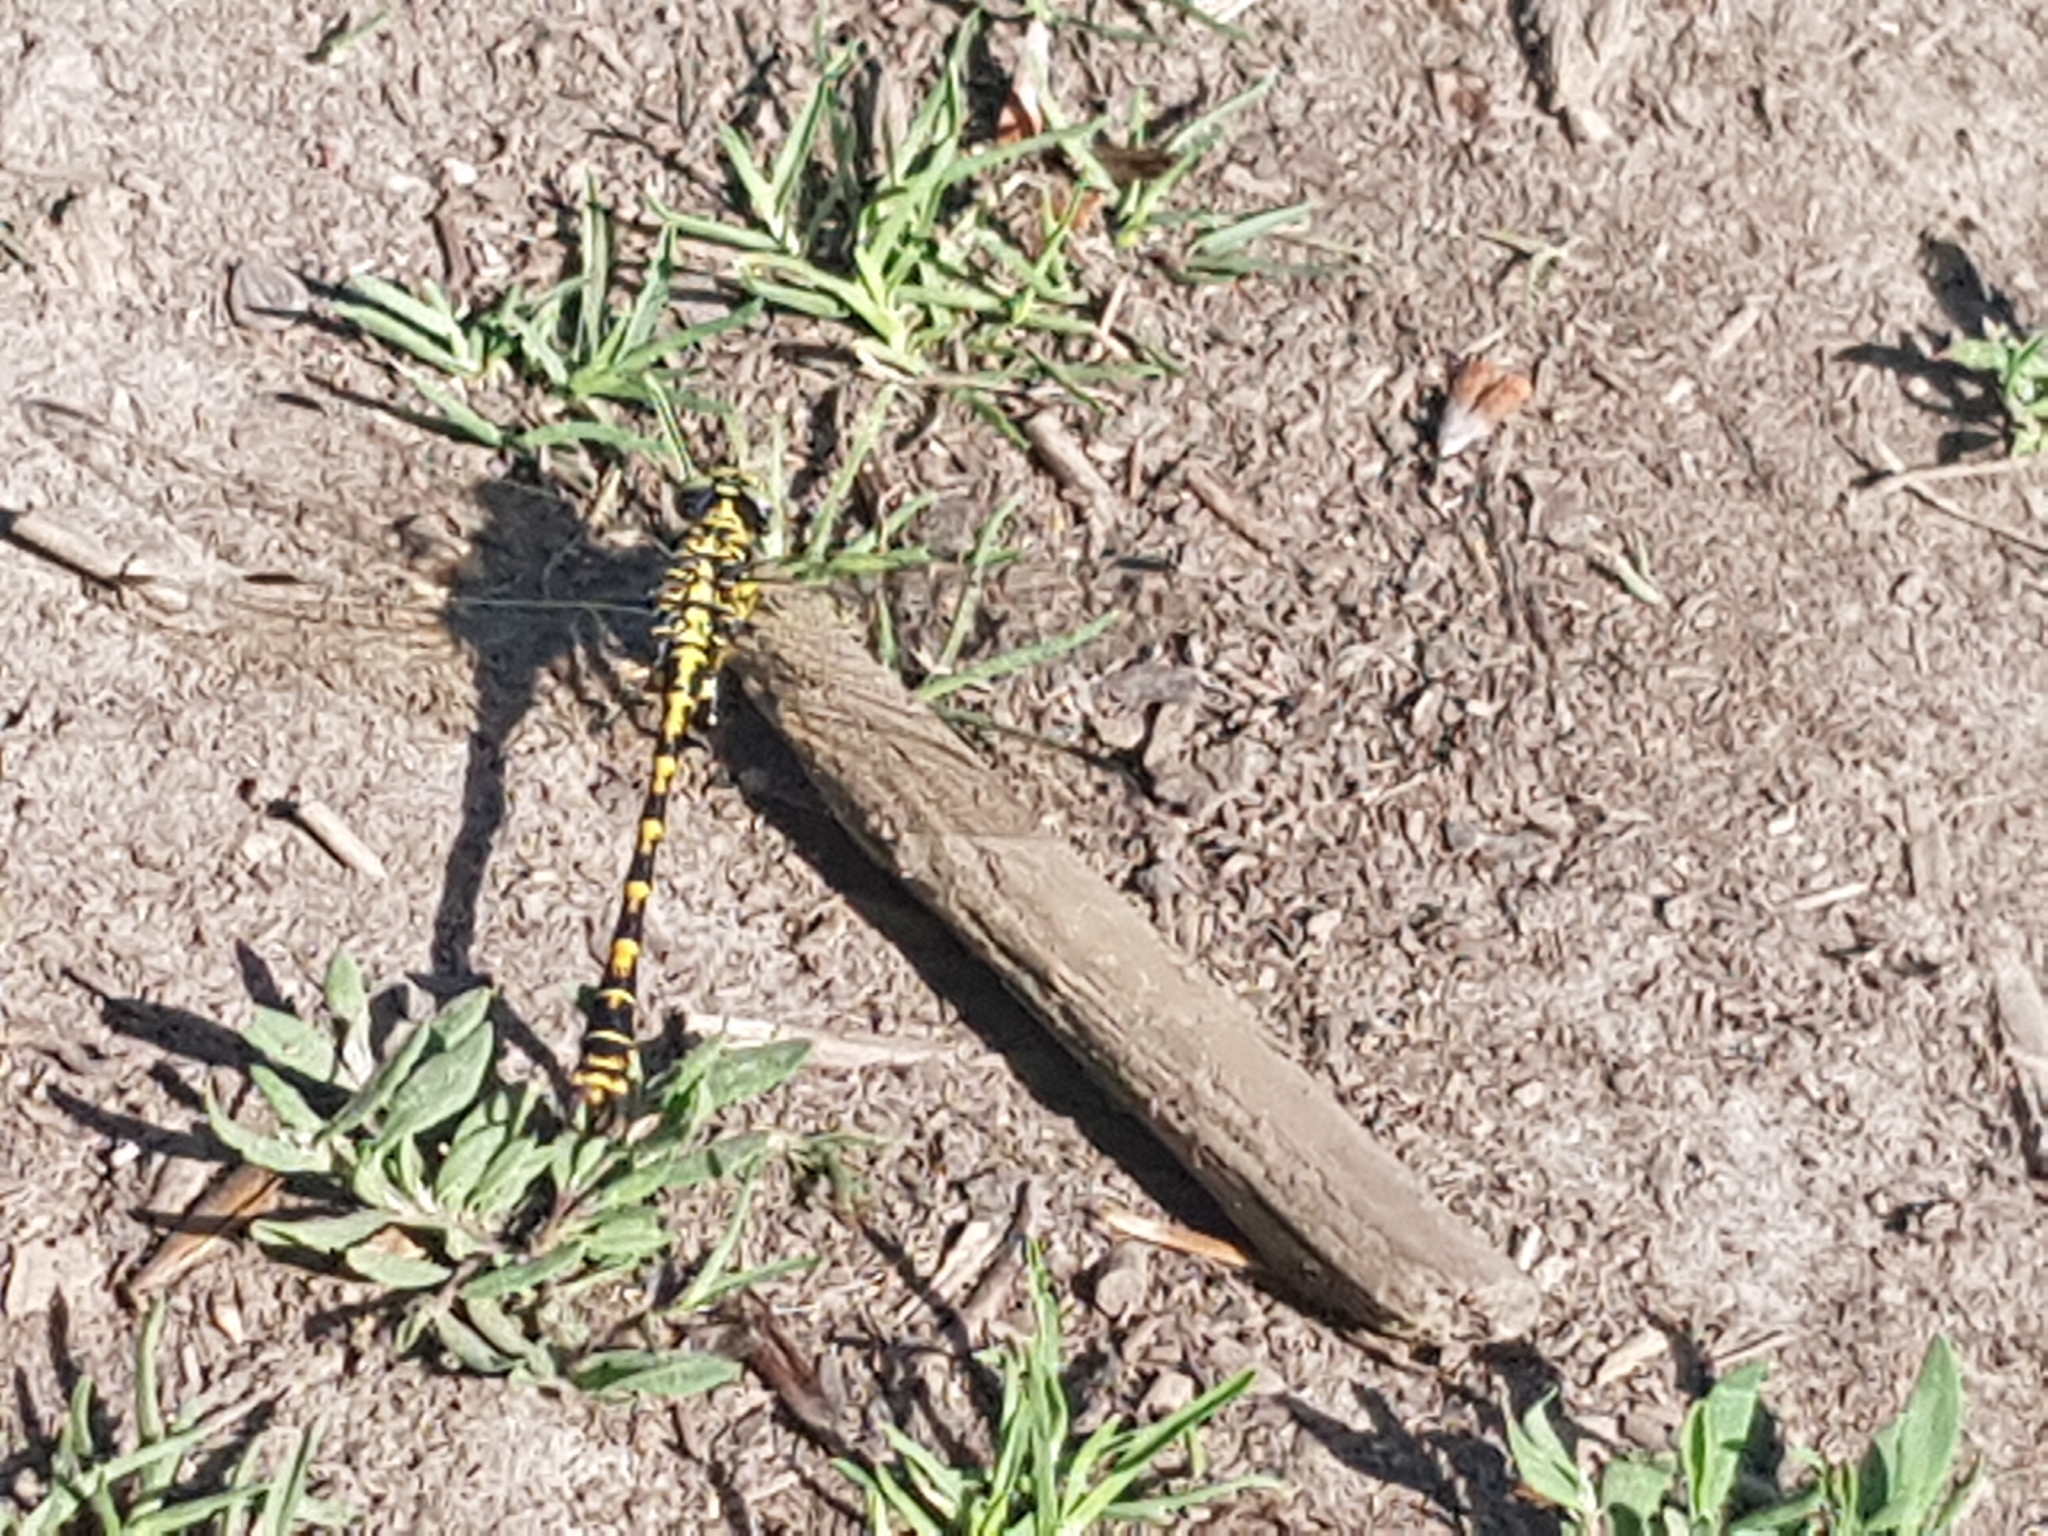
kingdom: Animalia
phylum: Arthropoda
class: Insecta
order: Odonata
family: Gomphidae
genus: Onychogomphus
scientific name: Onychogomphus forcipatus
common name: Small pincertail
